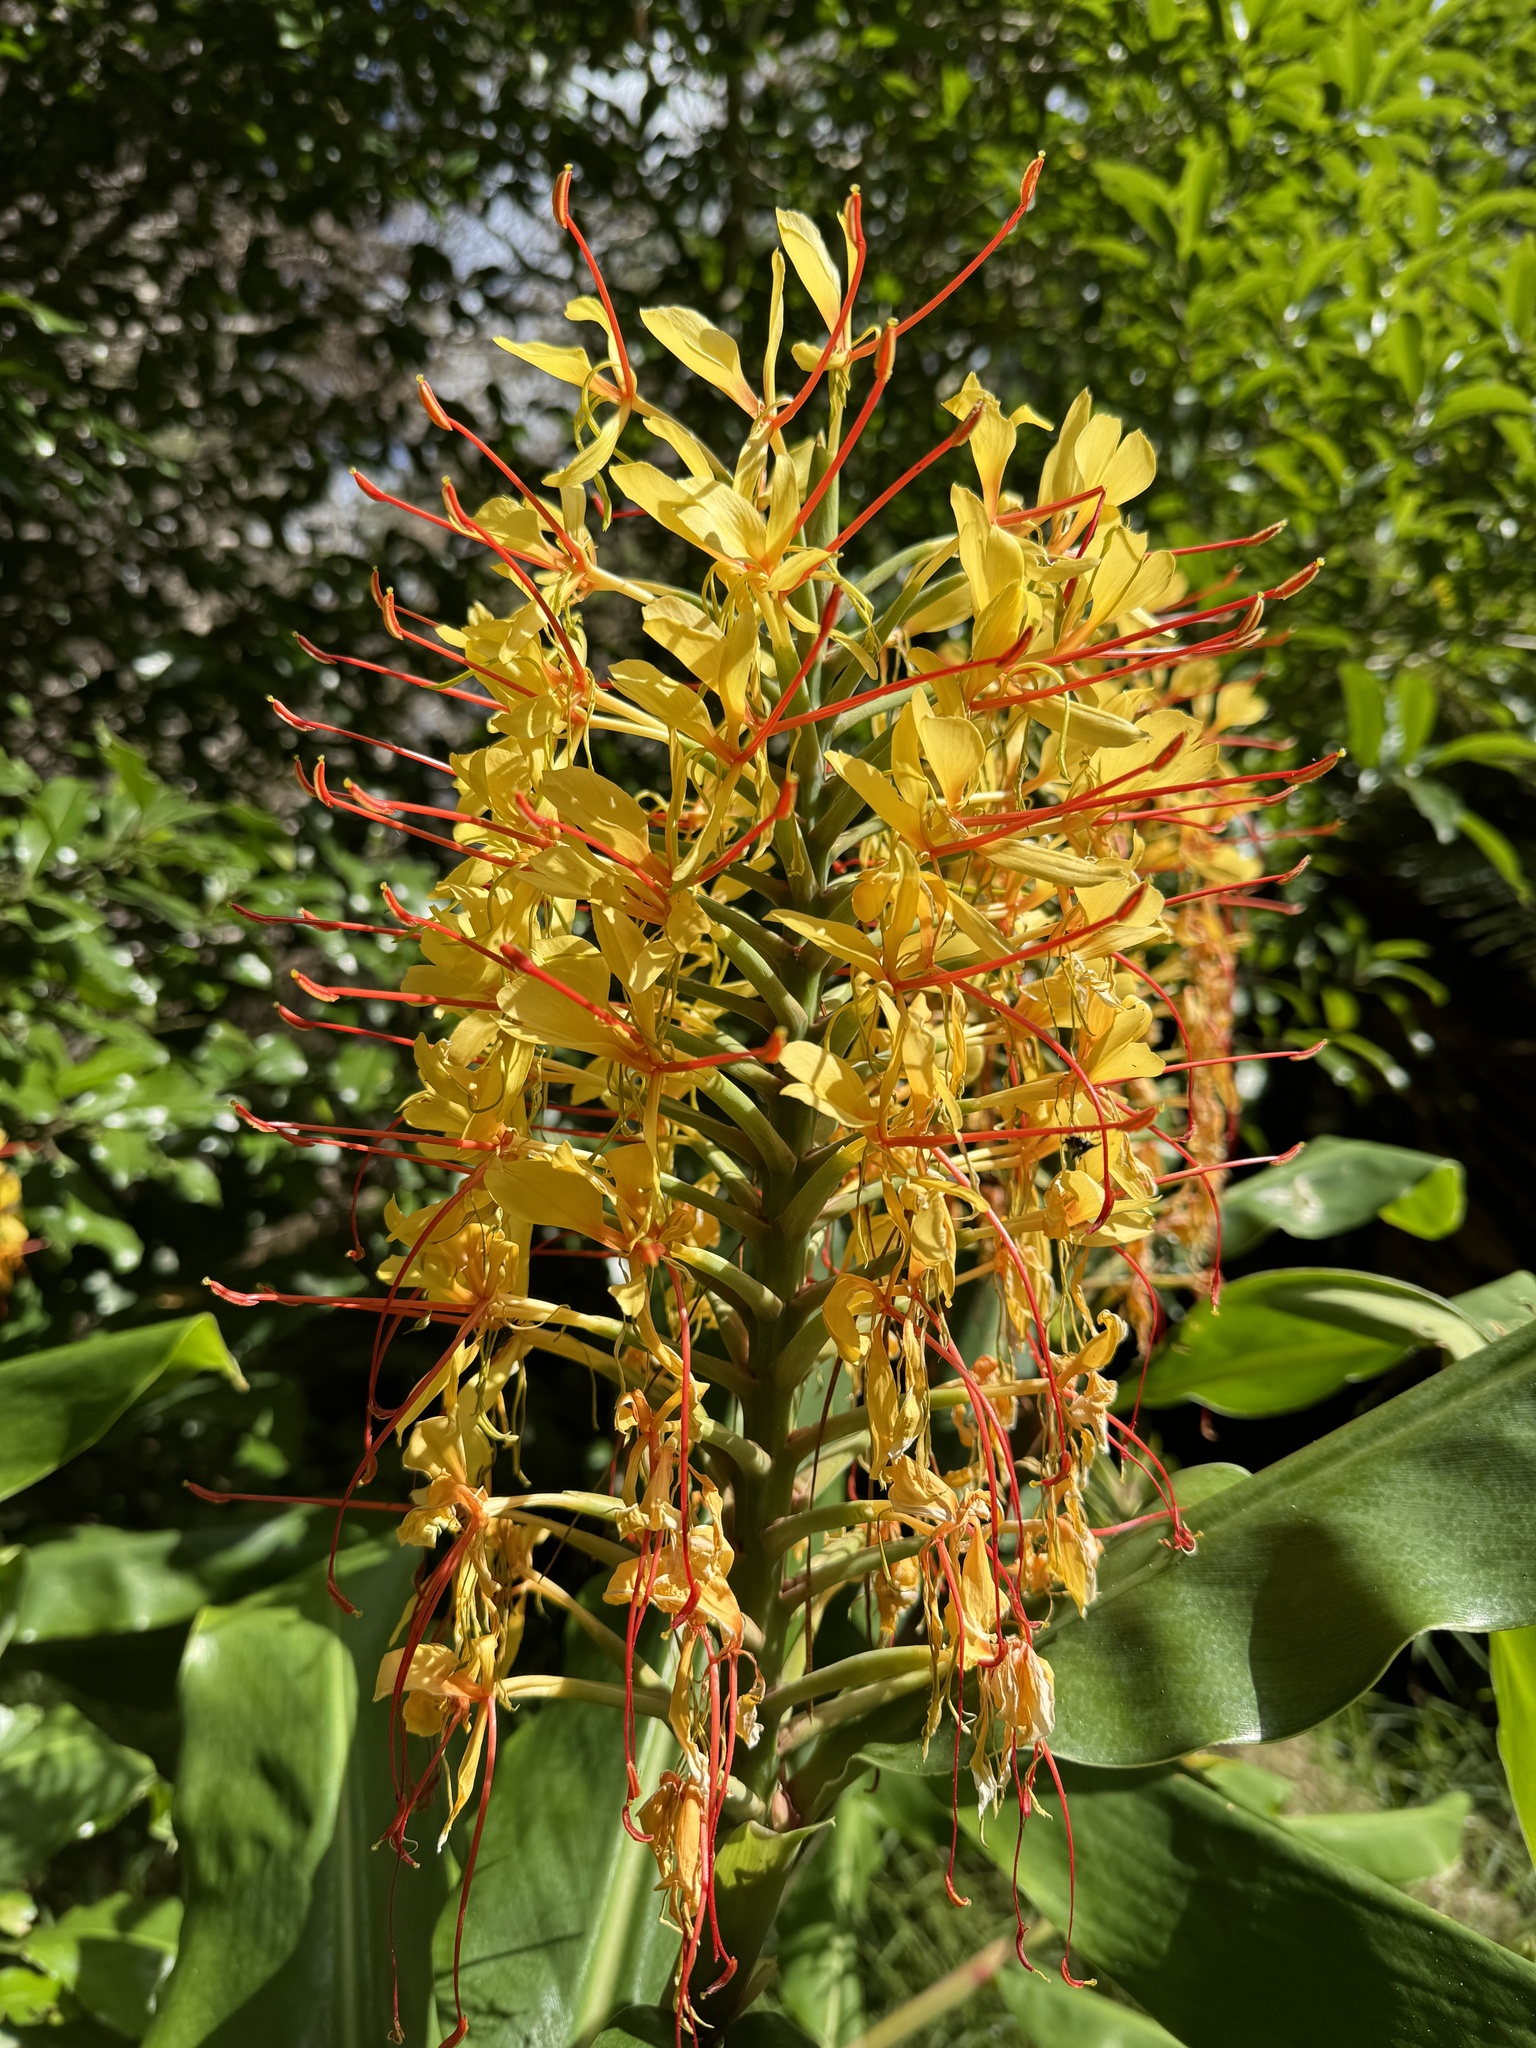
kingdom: Plantae
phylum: Tracheophyta
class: Liliopsida
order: Zingiberales
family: Zingiberaceae
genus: Hedychium
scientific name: Hedychium gardnerianum
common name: Himalayan ginger
